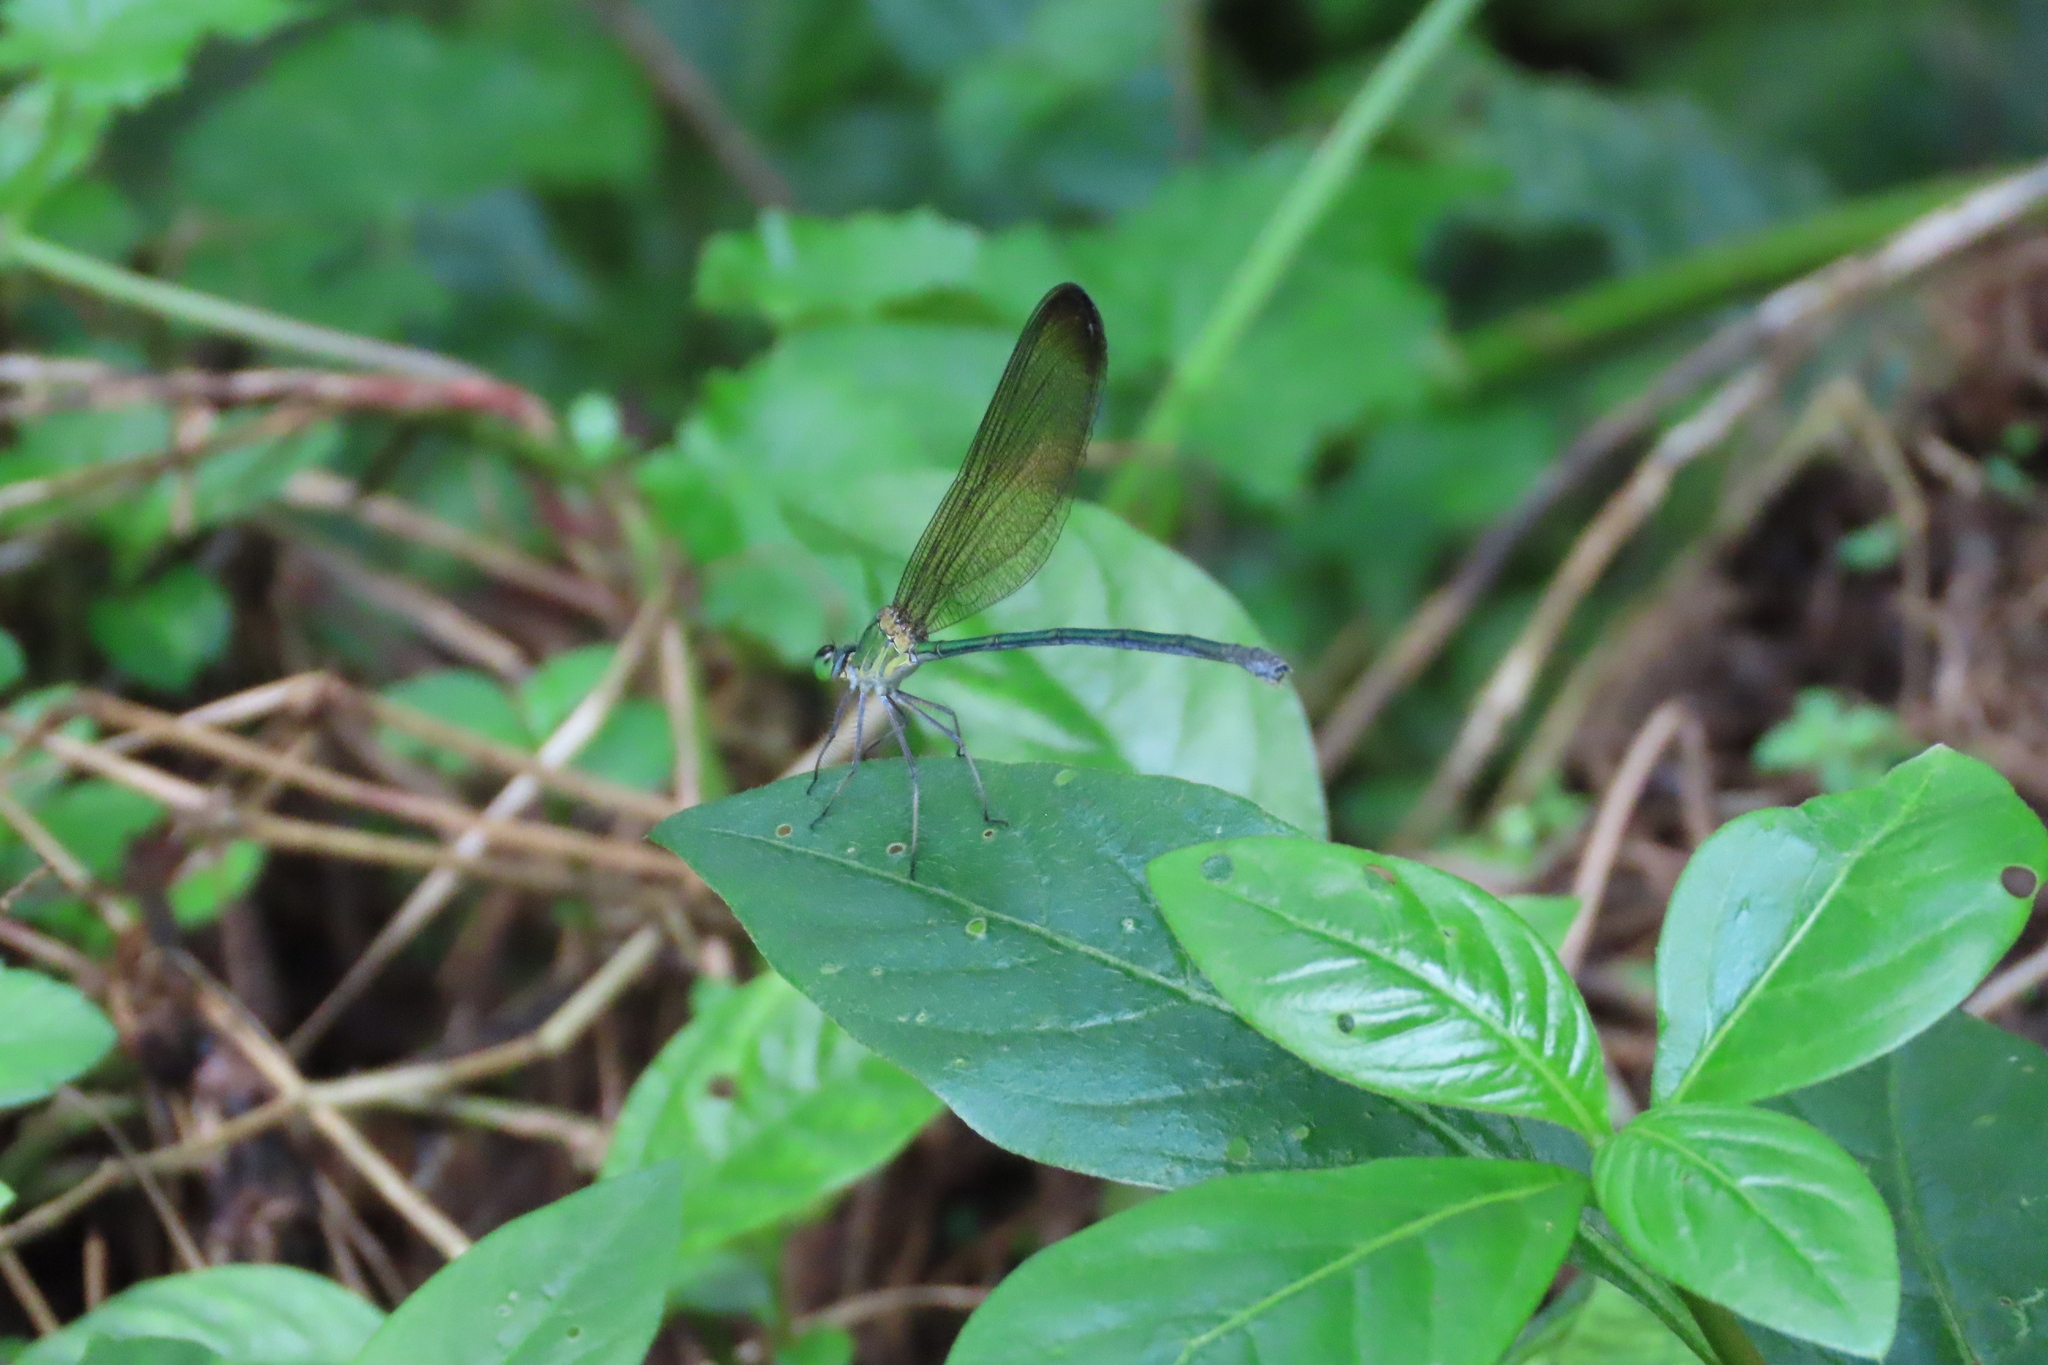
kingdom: Animalia
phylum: Arthropoda
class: Insecta
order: Odonata
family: Calopterygidae
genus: Vestalis
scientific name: Vestalis apicalis
